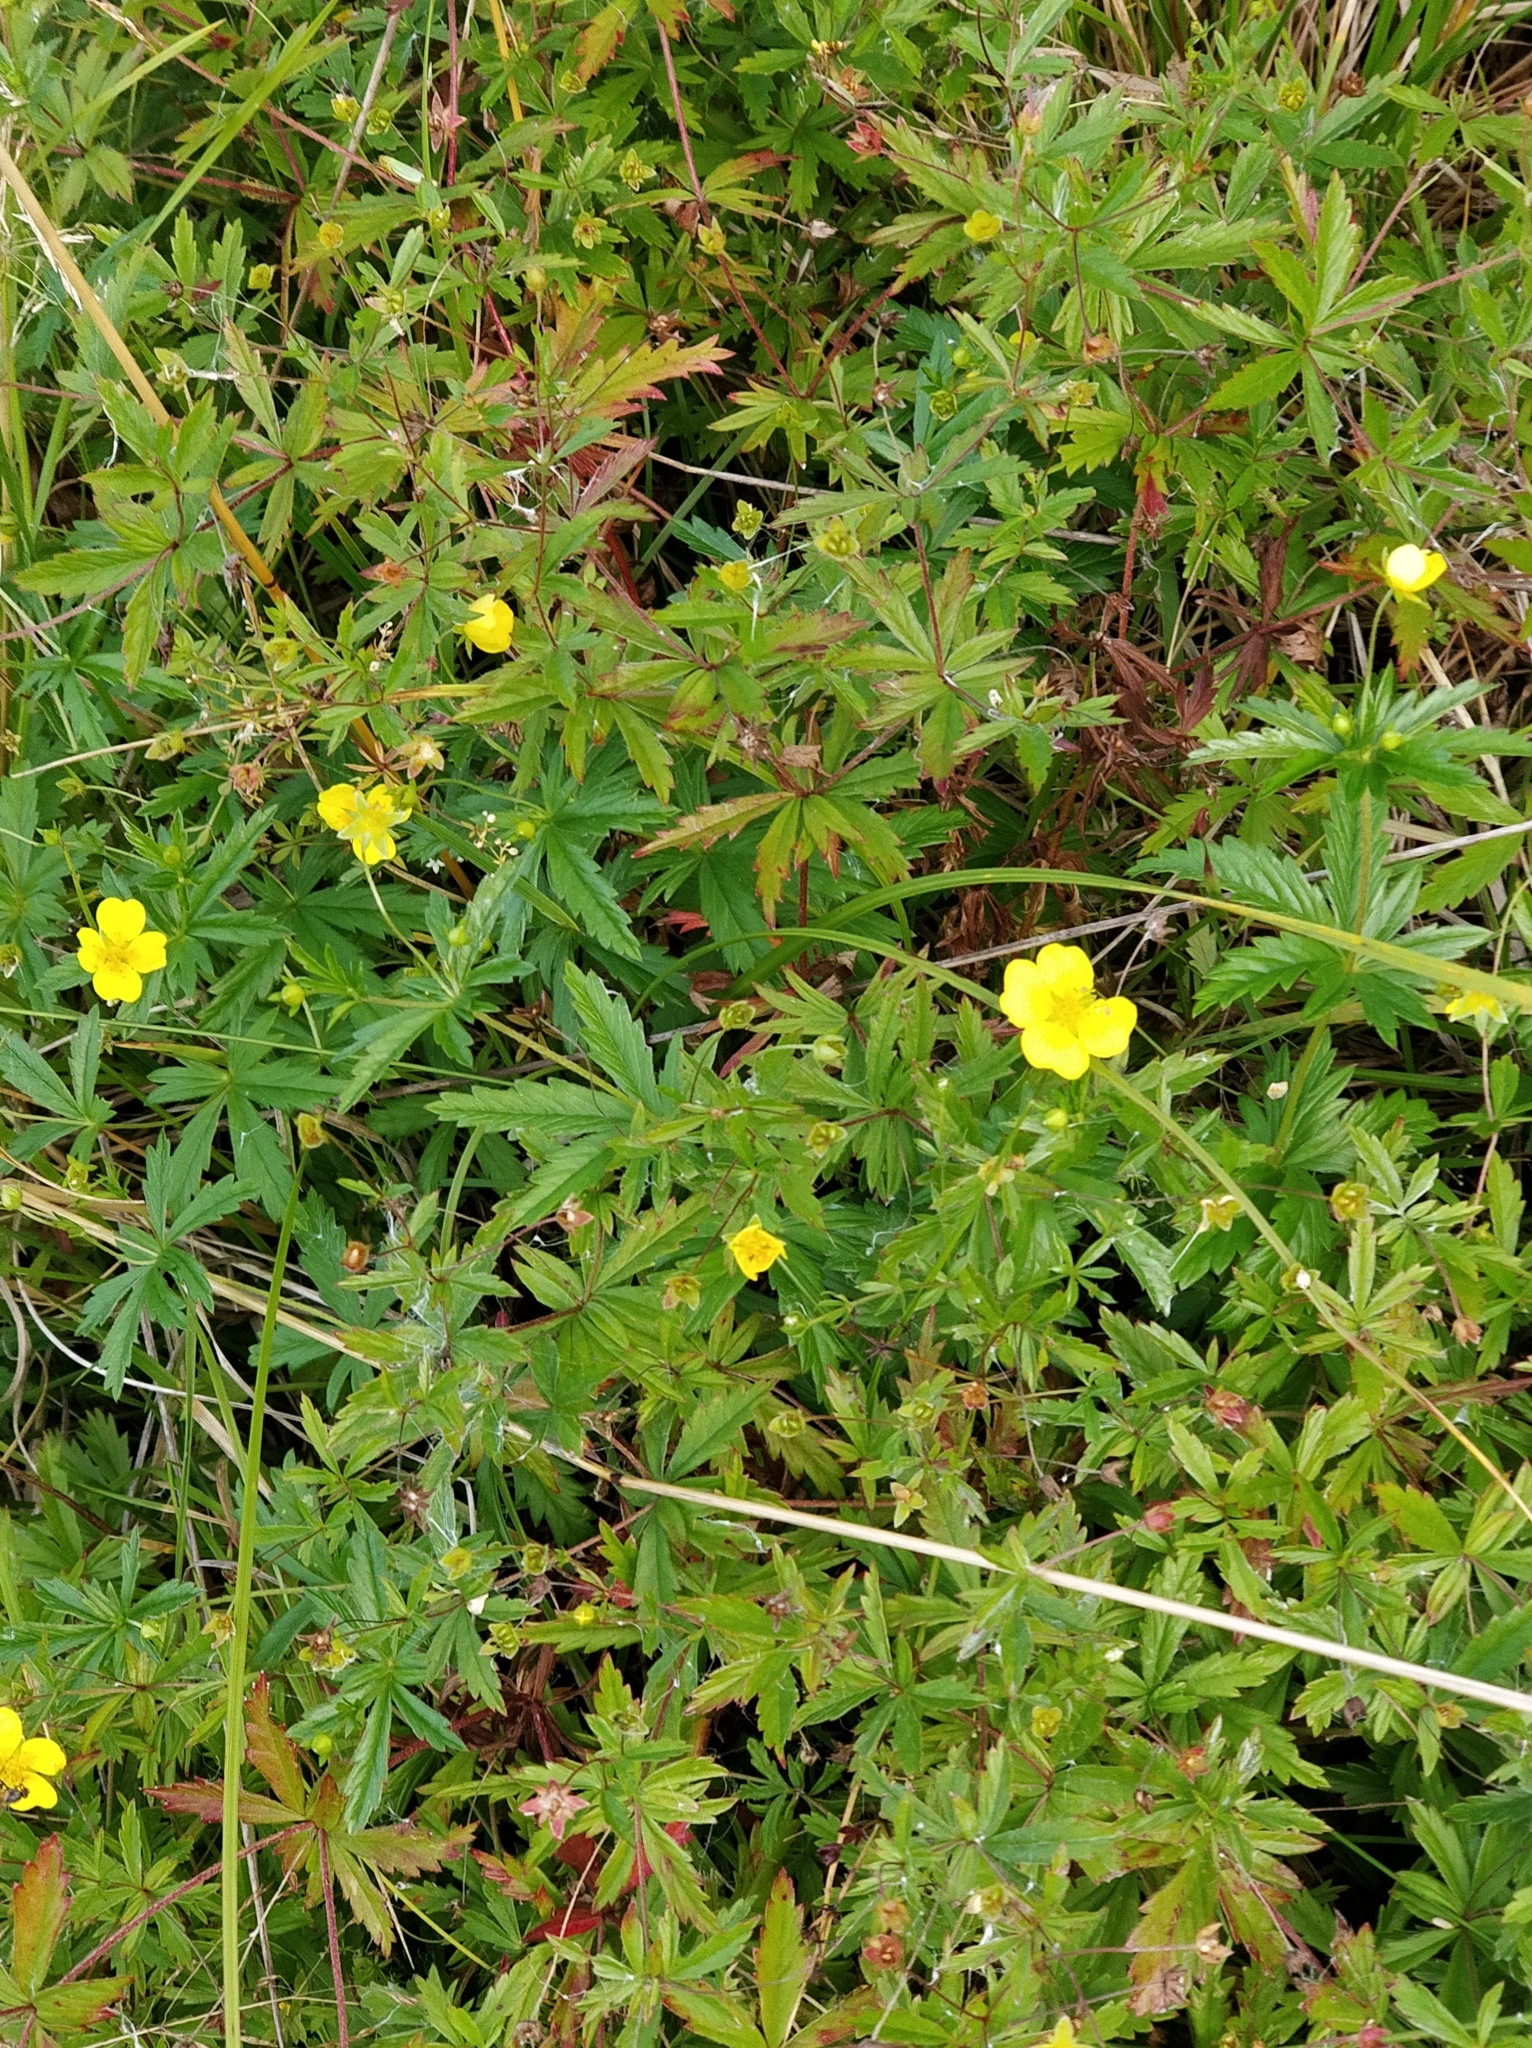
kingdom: Plantae
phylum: Tracheophyta
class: Magnoliopsida
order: Rosales
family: Rosaceae
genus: Potentilla
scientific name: Potentilla erecta
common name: Tormentil
